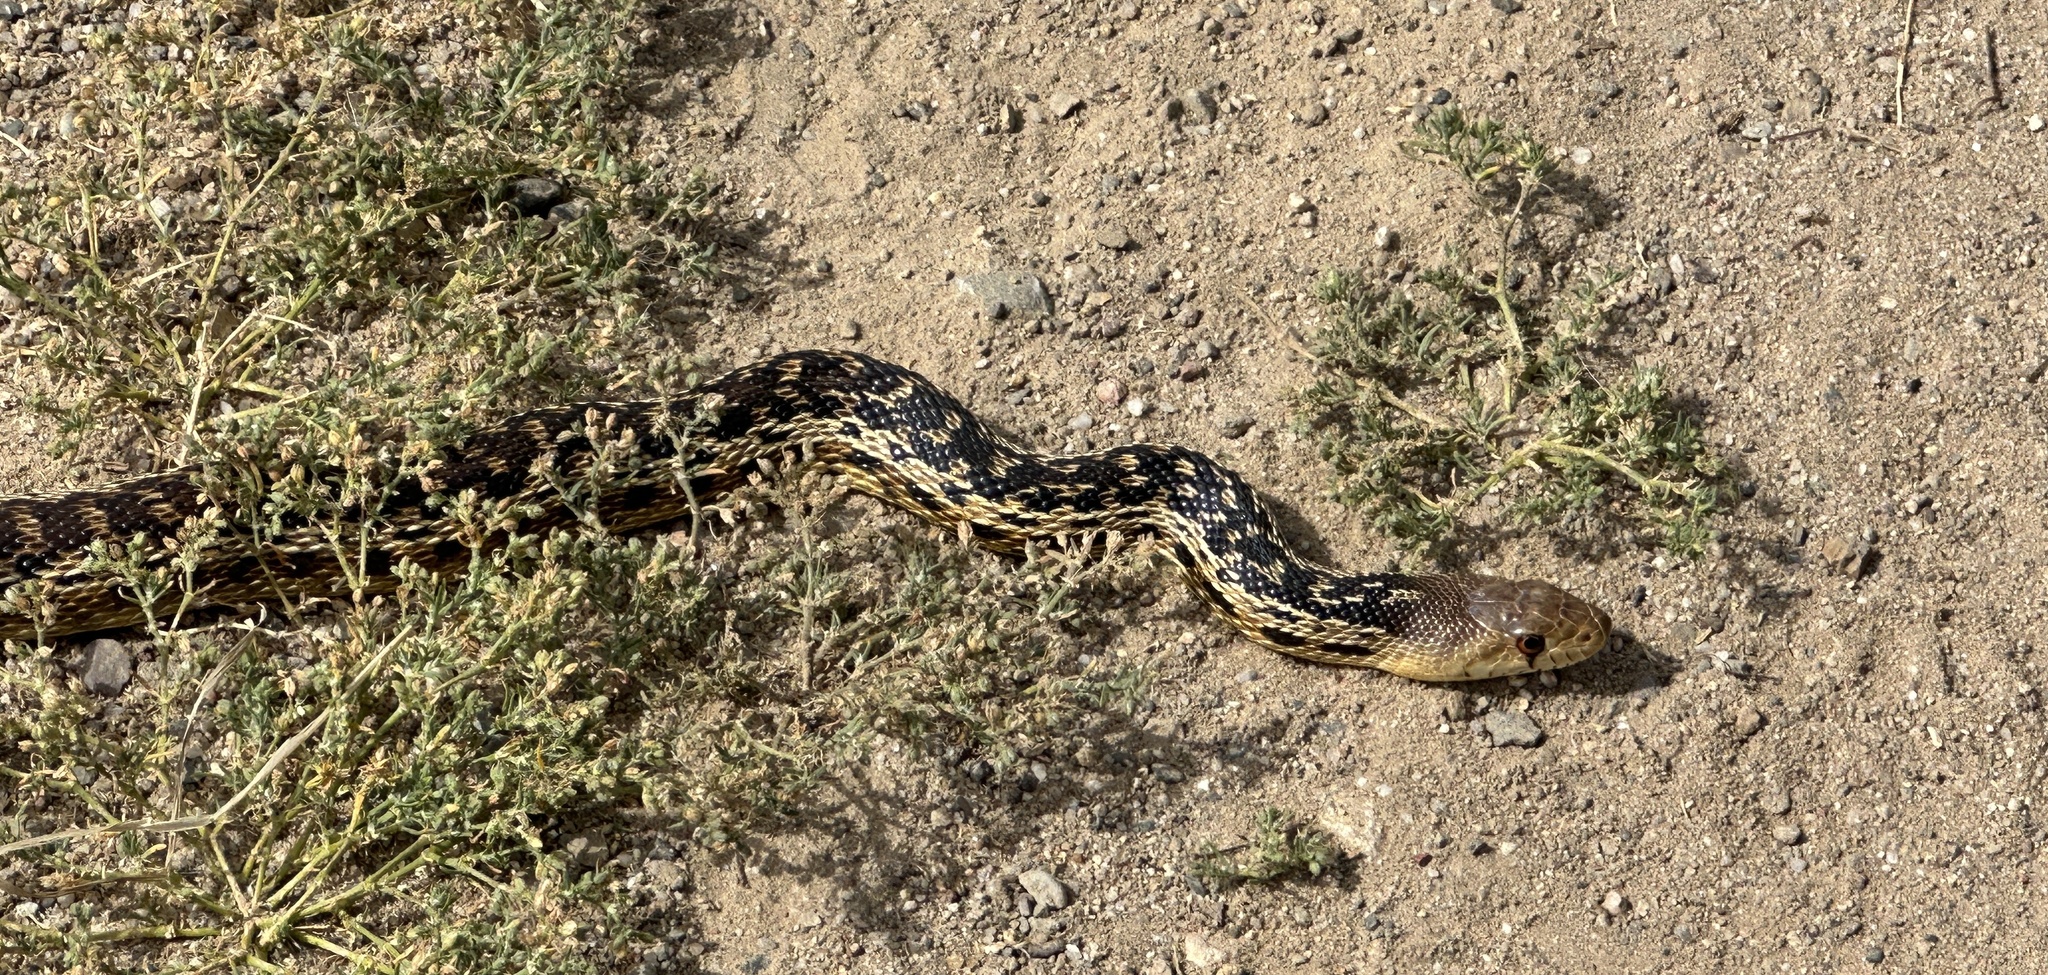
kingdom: Animalia
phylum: Chordata
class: Squamata
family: Colubridae
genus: Pituophis
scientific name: Pituophis catenifer
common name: Gopher snake
